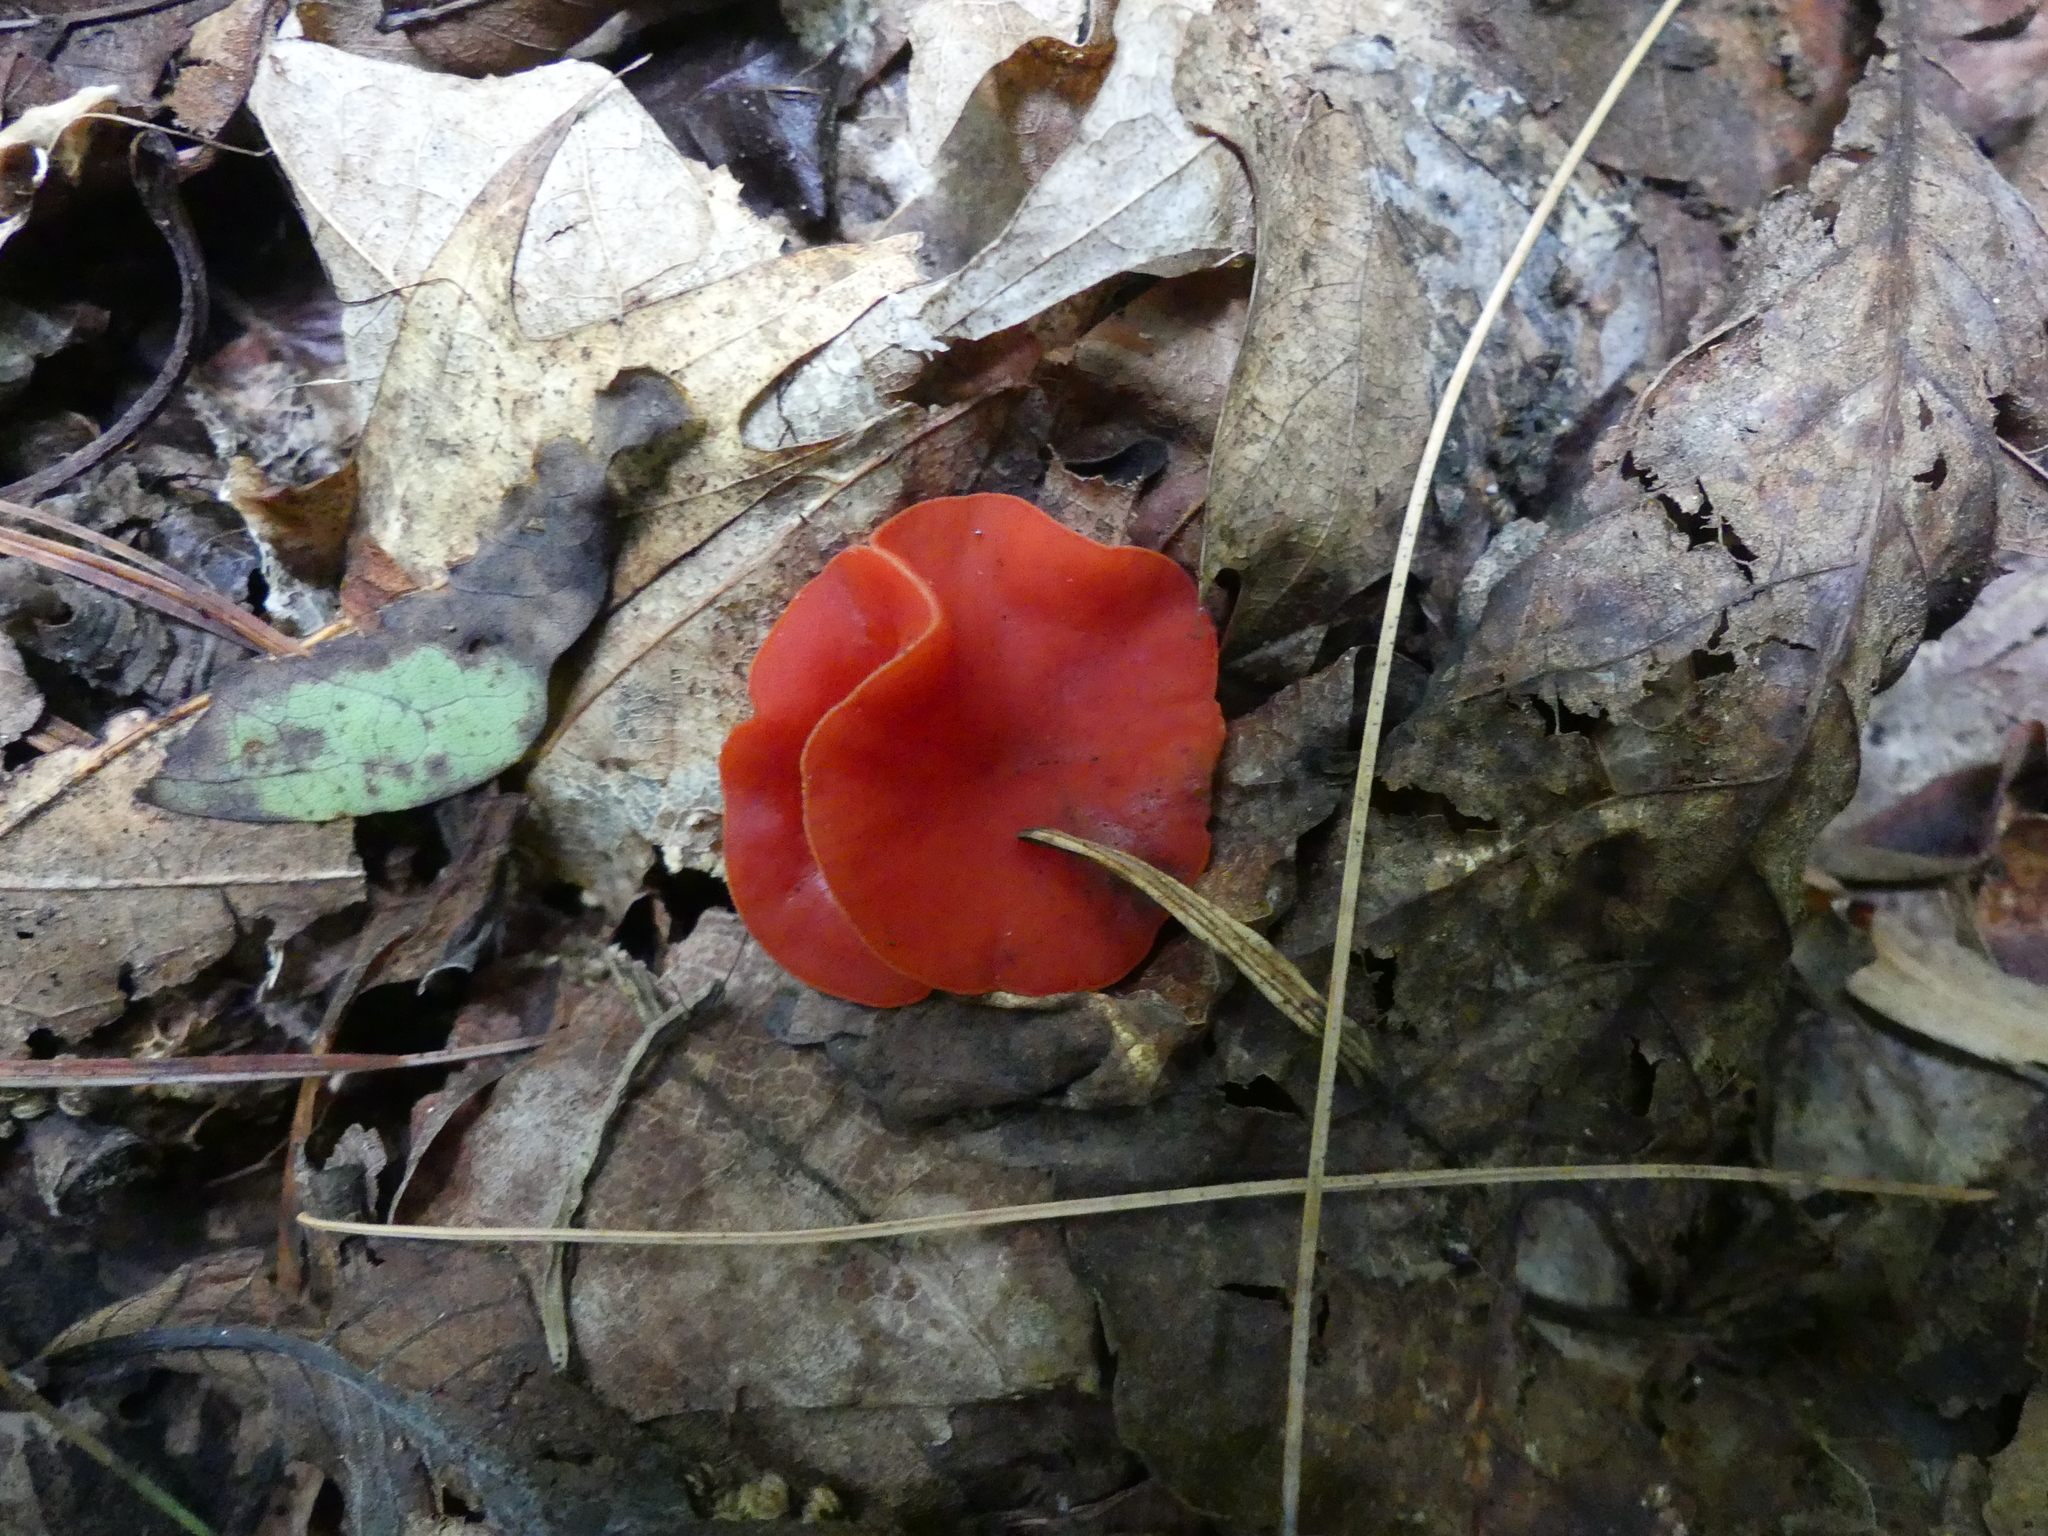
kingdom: Fungi
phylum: Ascomycota
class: Pezizomycetes
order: Pezizales
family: Sarcoscyphaceae
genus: Sarcoscypha
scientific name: Sarcoscypha occidentalis
